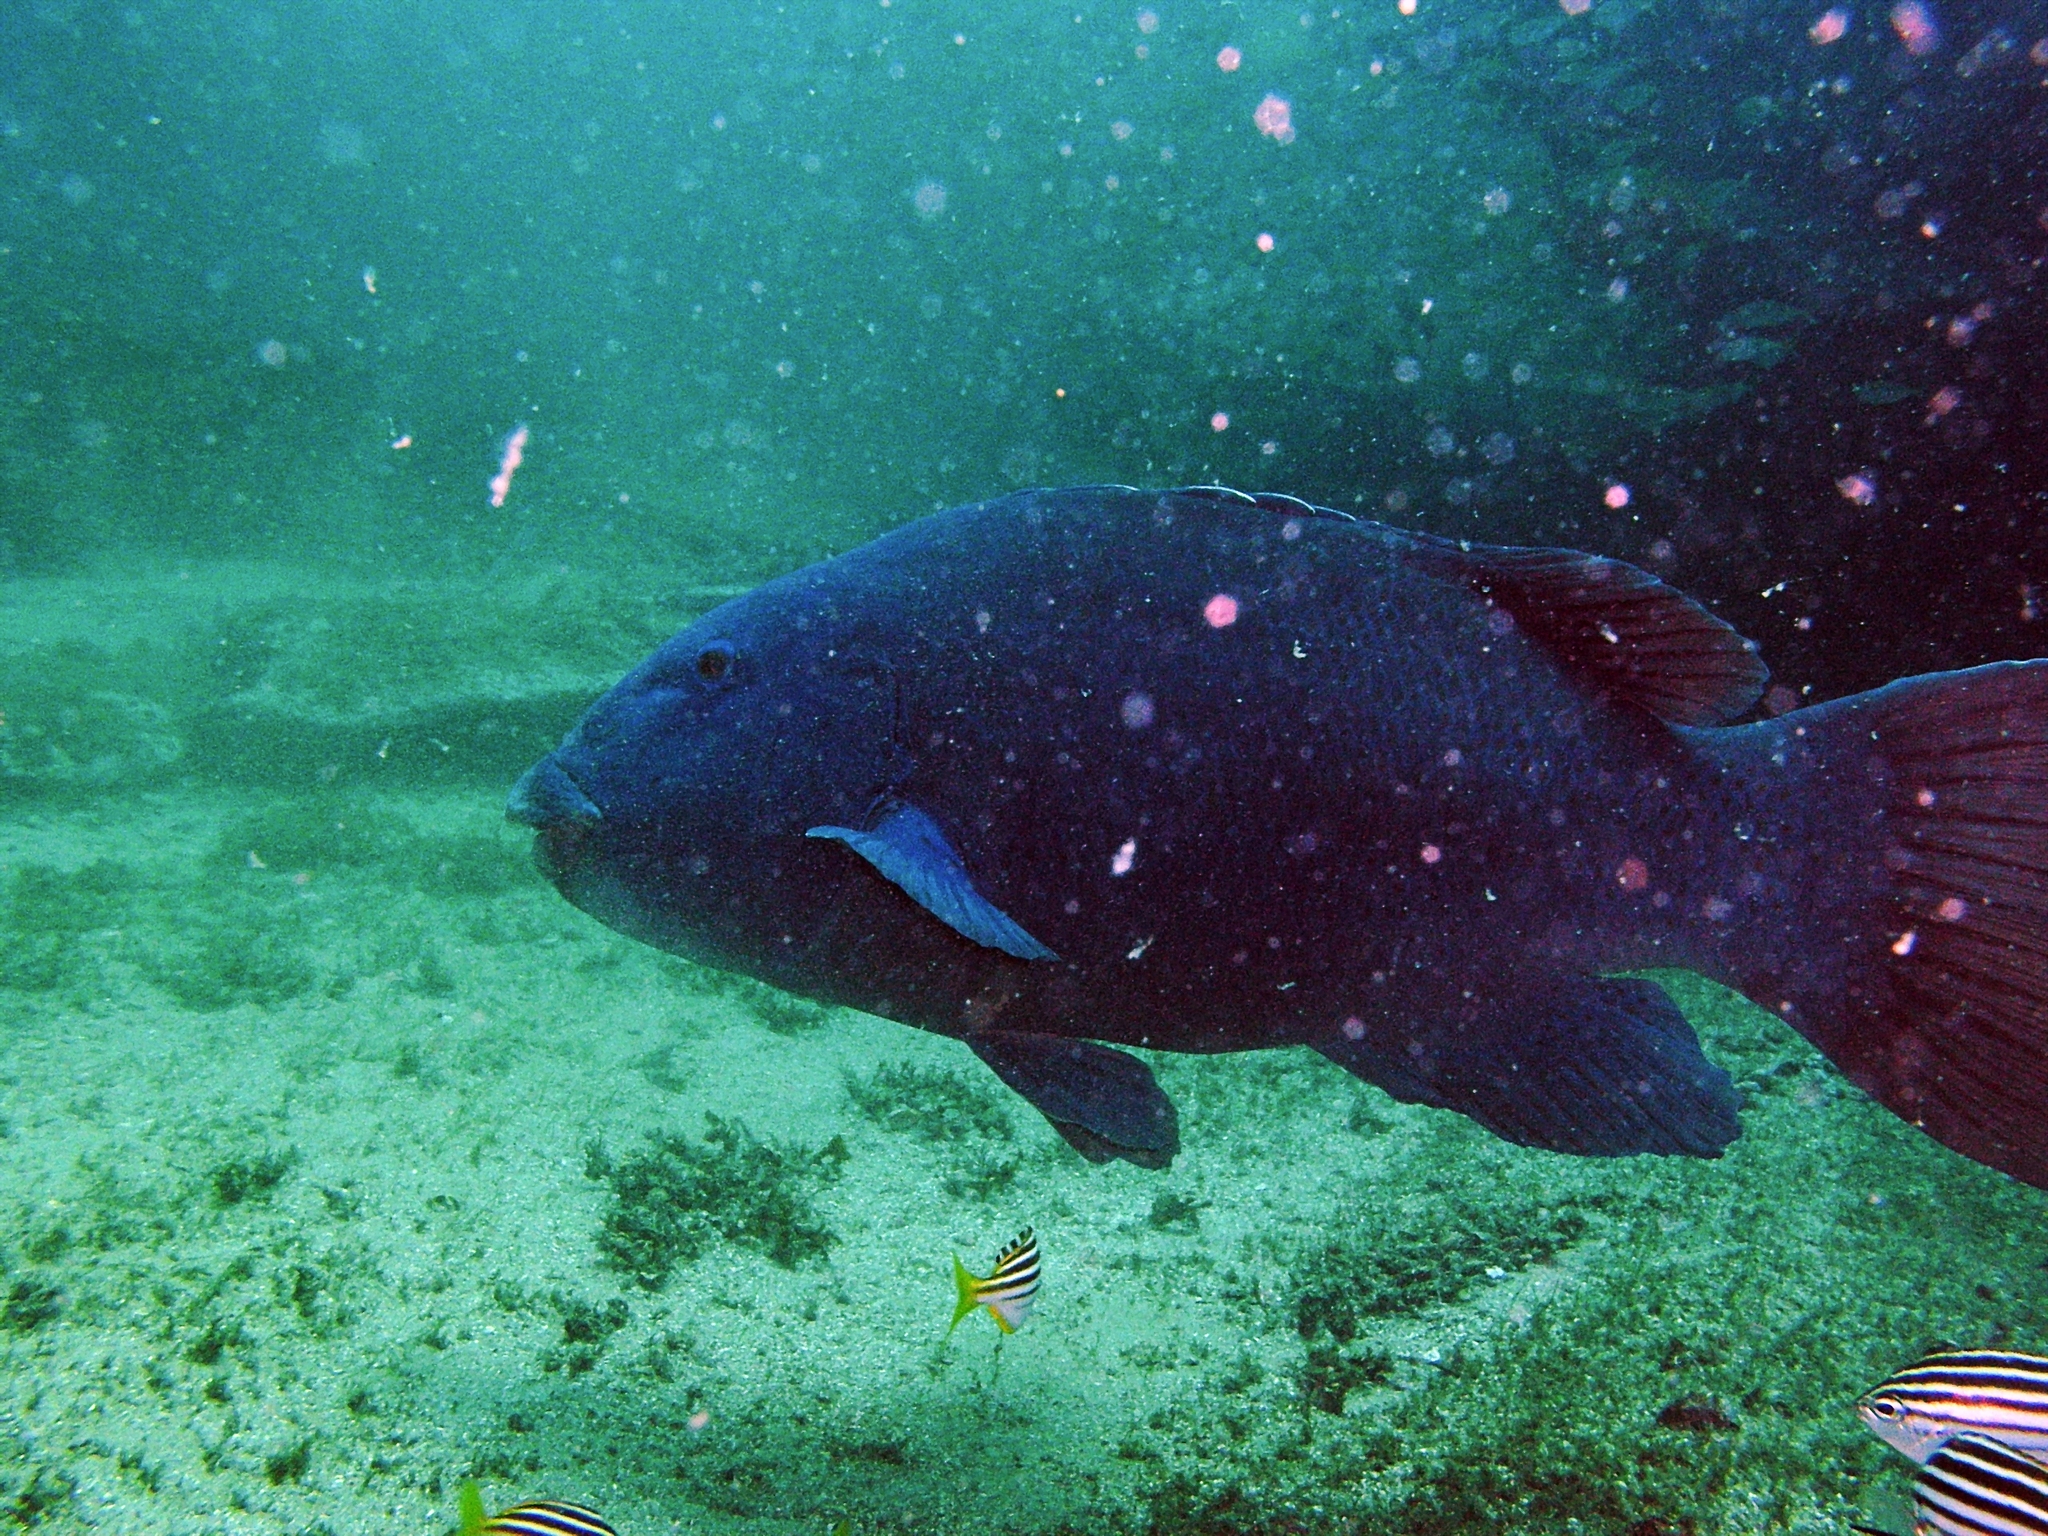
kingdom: Animalia
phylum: Chordata
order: Perciformes
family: Labridae
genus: Achoerodus
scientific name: Achoerodus viridis
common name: Brown groper
